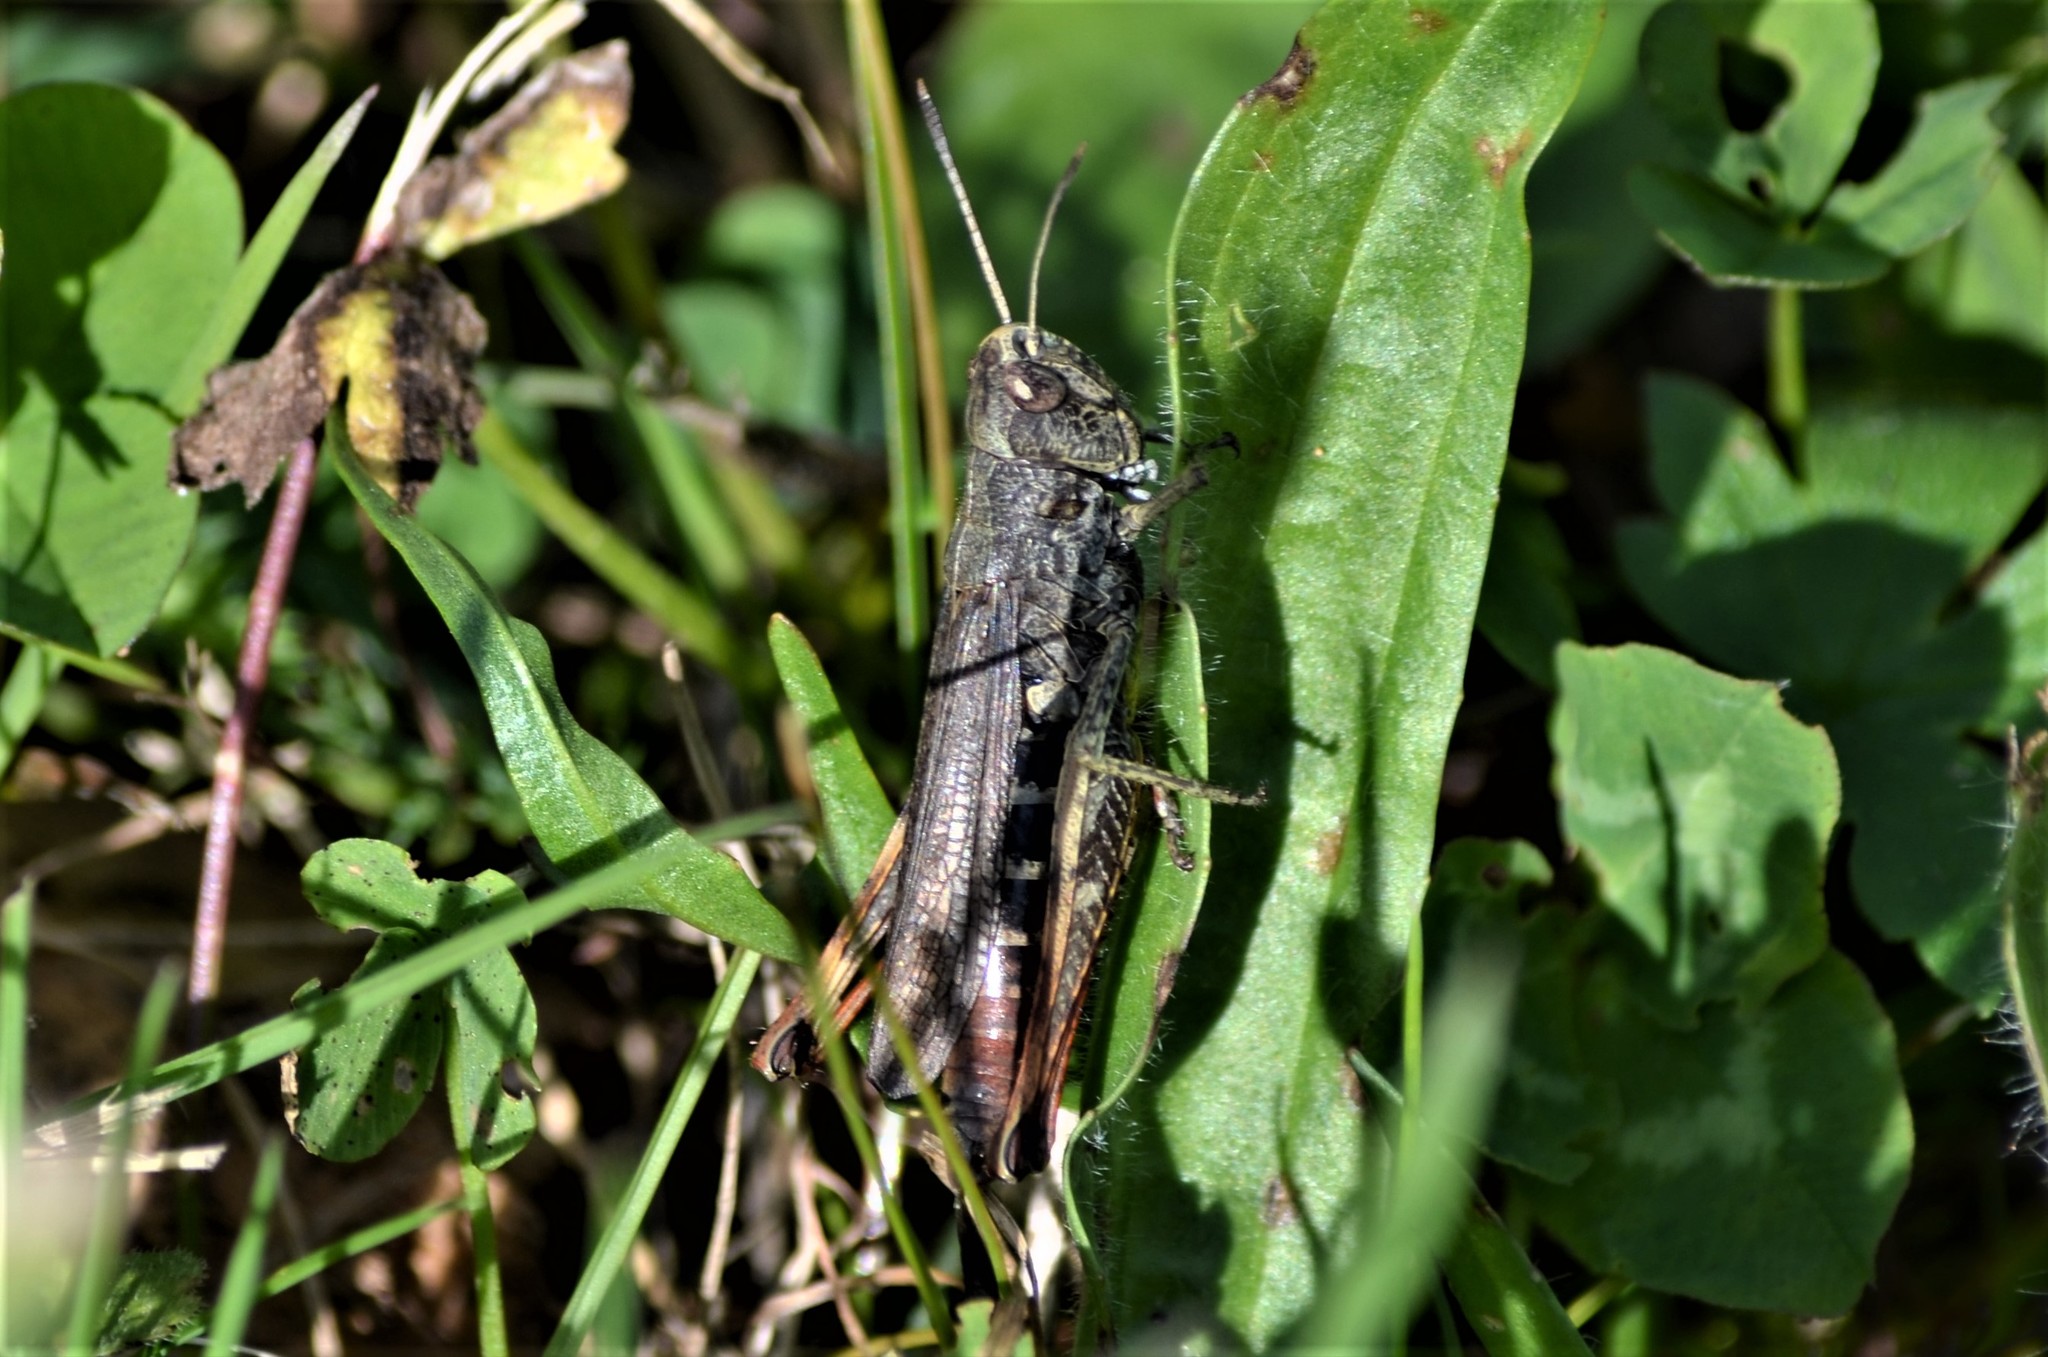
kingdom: Animalia
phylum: Arthropoda
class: Insecta
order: Orthoptera
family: Acrididae
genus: Gomphocerippus
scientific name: Gomphocerippus rufus
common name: Rufous grasshopper
